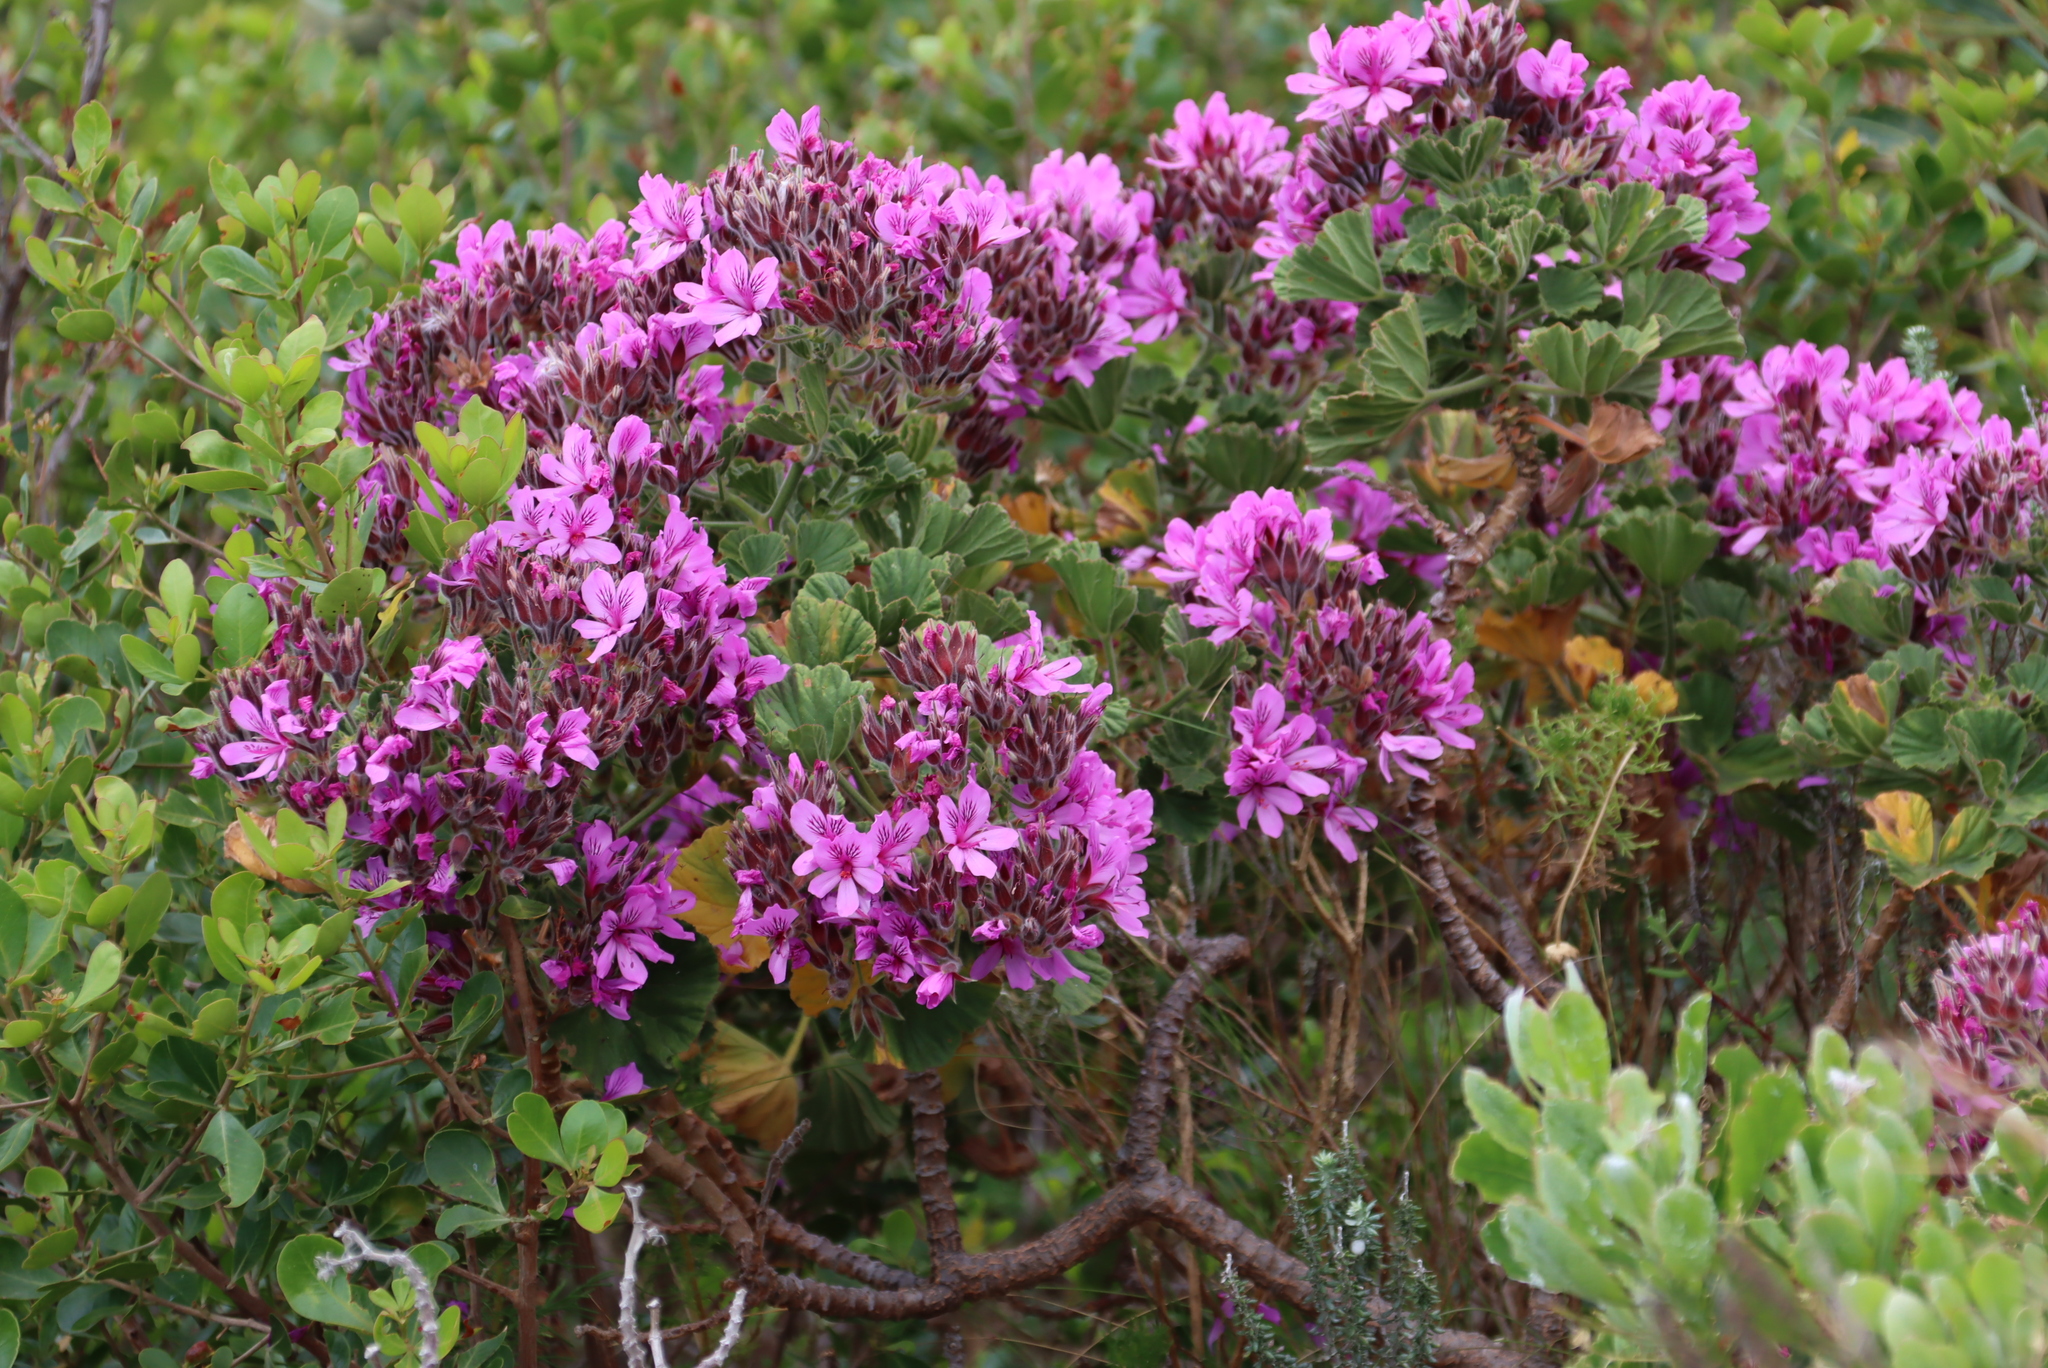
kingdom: Plantae
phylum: Tracheophyta
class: Magnoliopsida
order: Geraniales
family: Geraniaceae
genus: Pelargonium
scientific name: Pelargonium cucullatum
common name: Tree pelargonium
